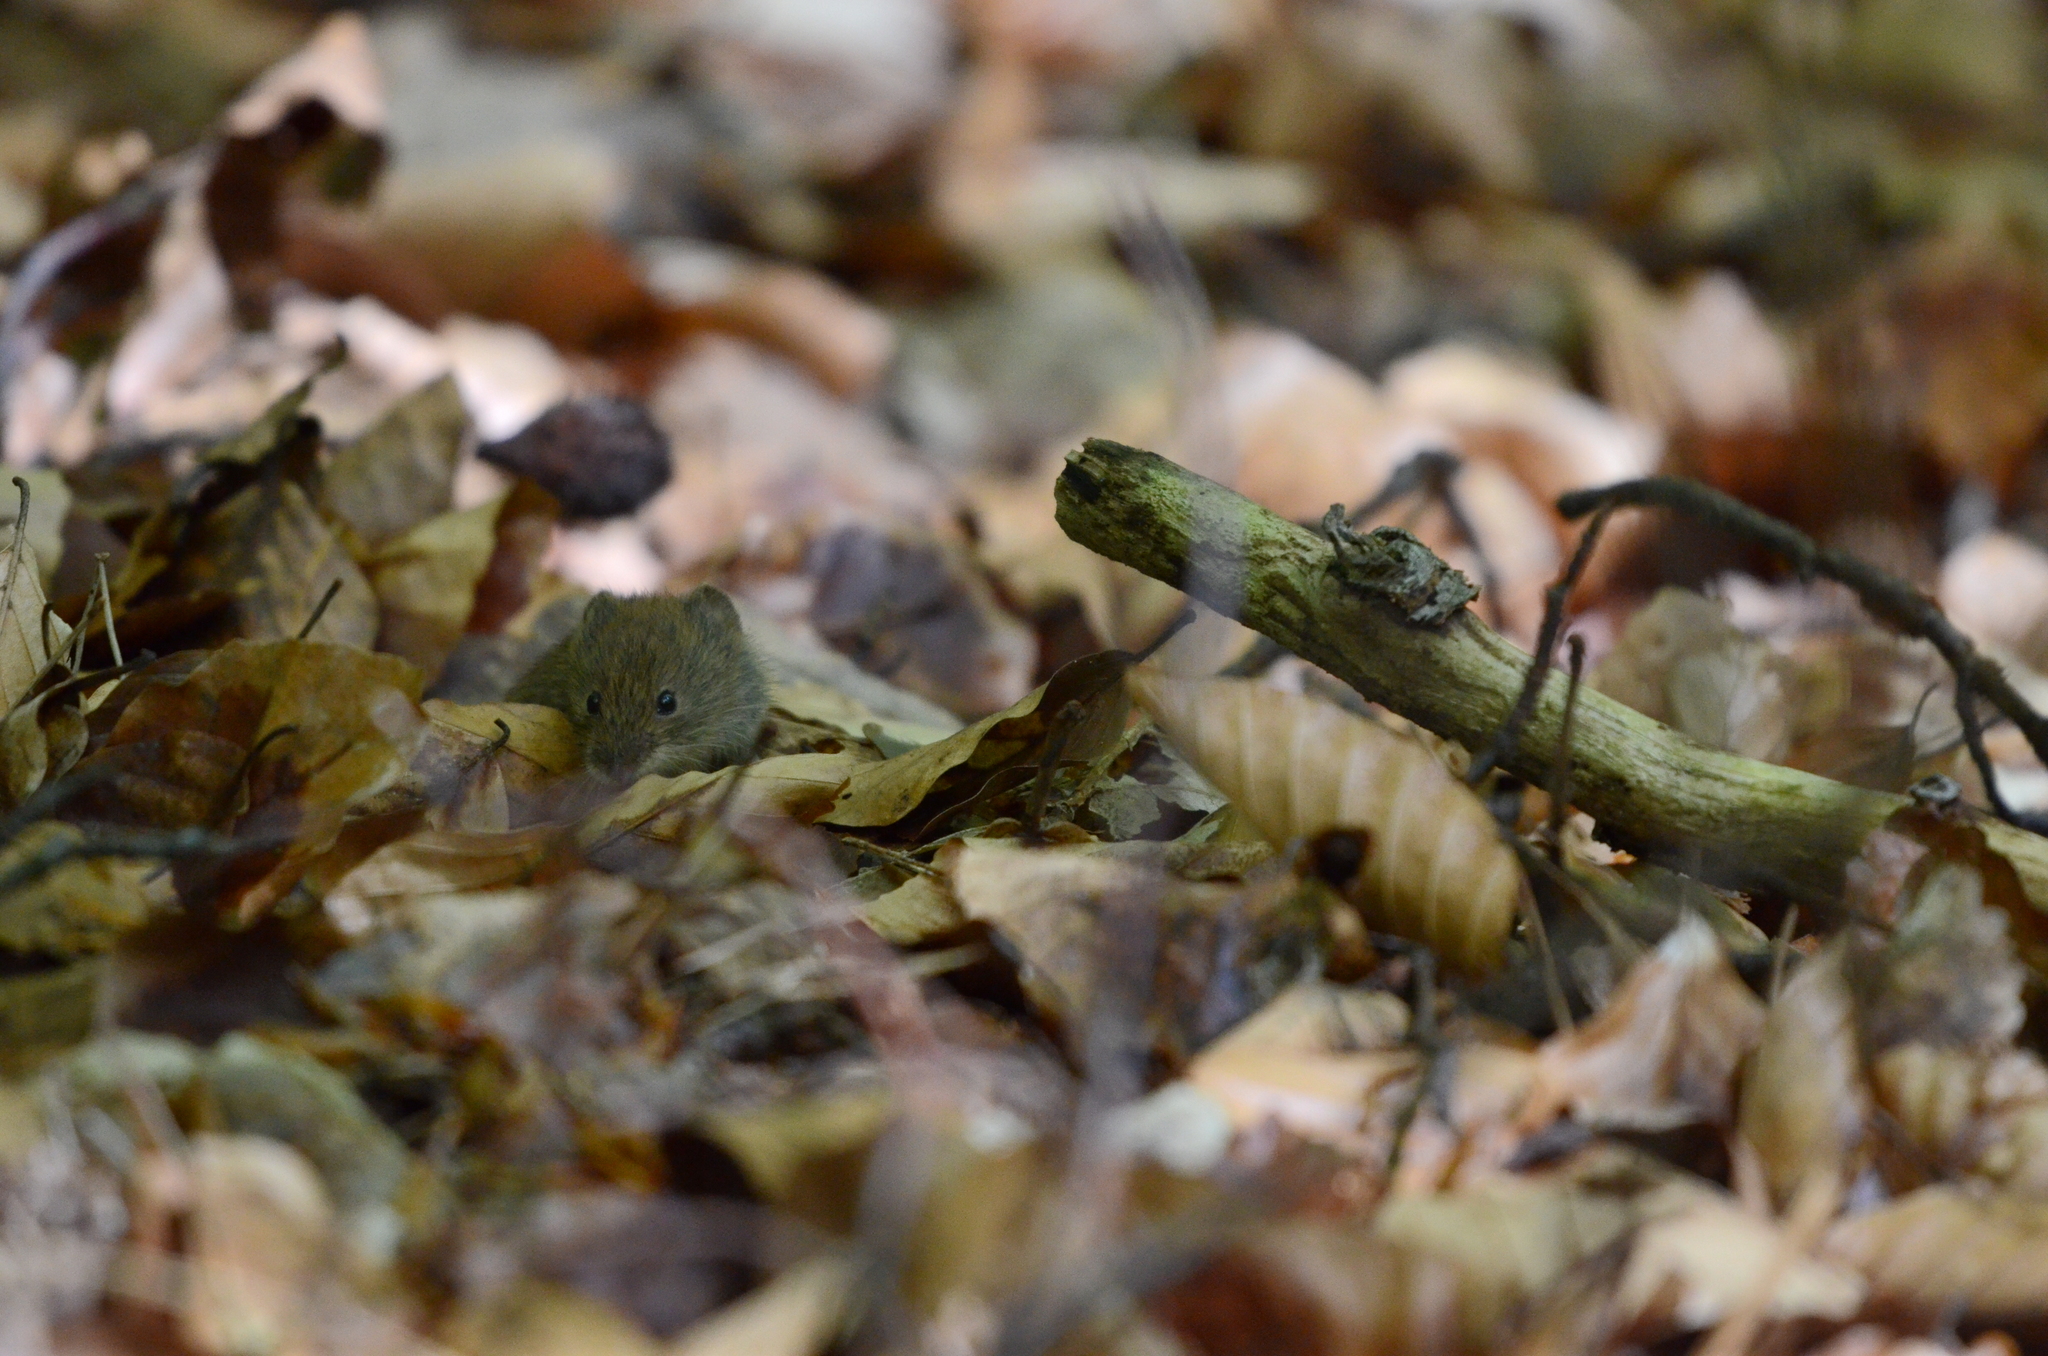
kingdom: Animalia
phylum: Chordata
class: Mammalia
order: Rodentia
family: Cricetidae
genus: Myodes
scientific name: Myodes glareolus
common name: Bank vole
